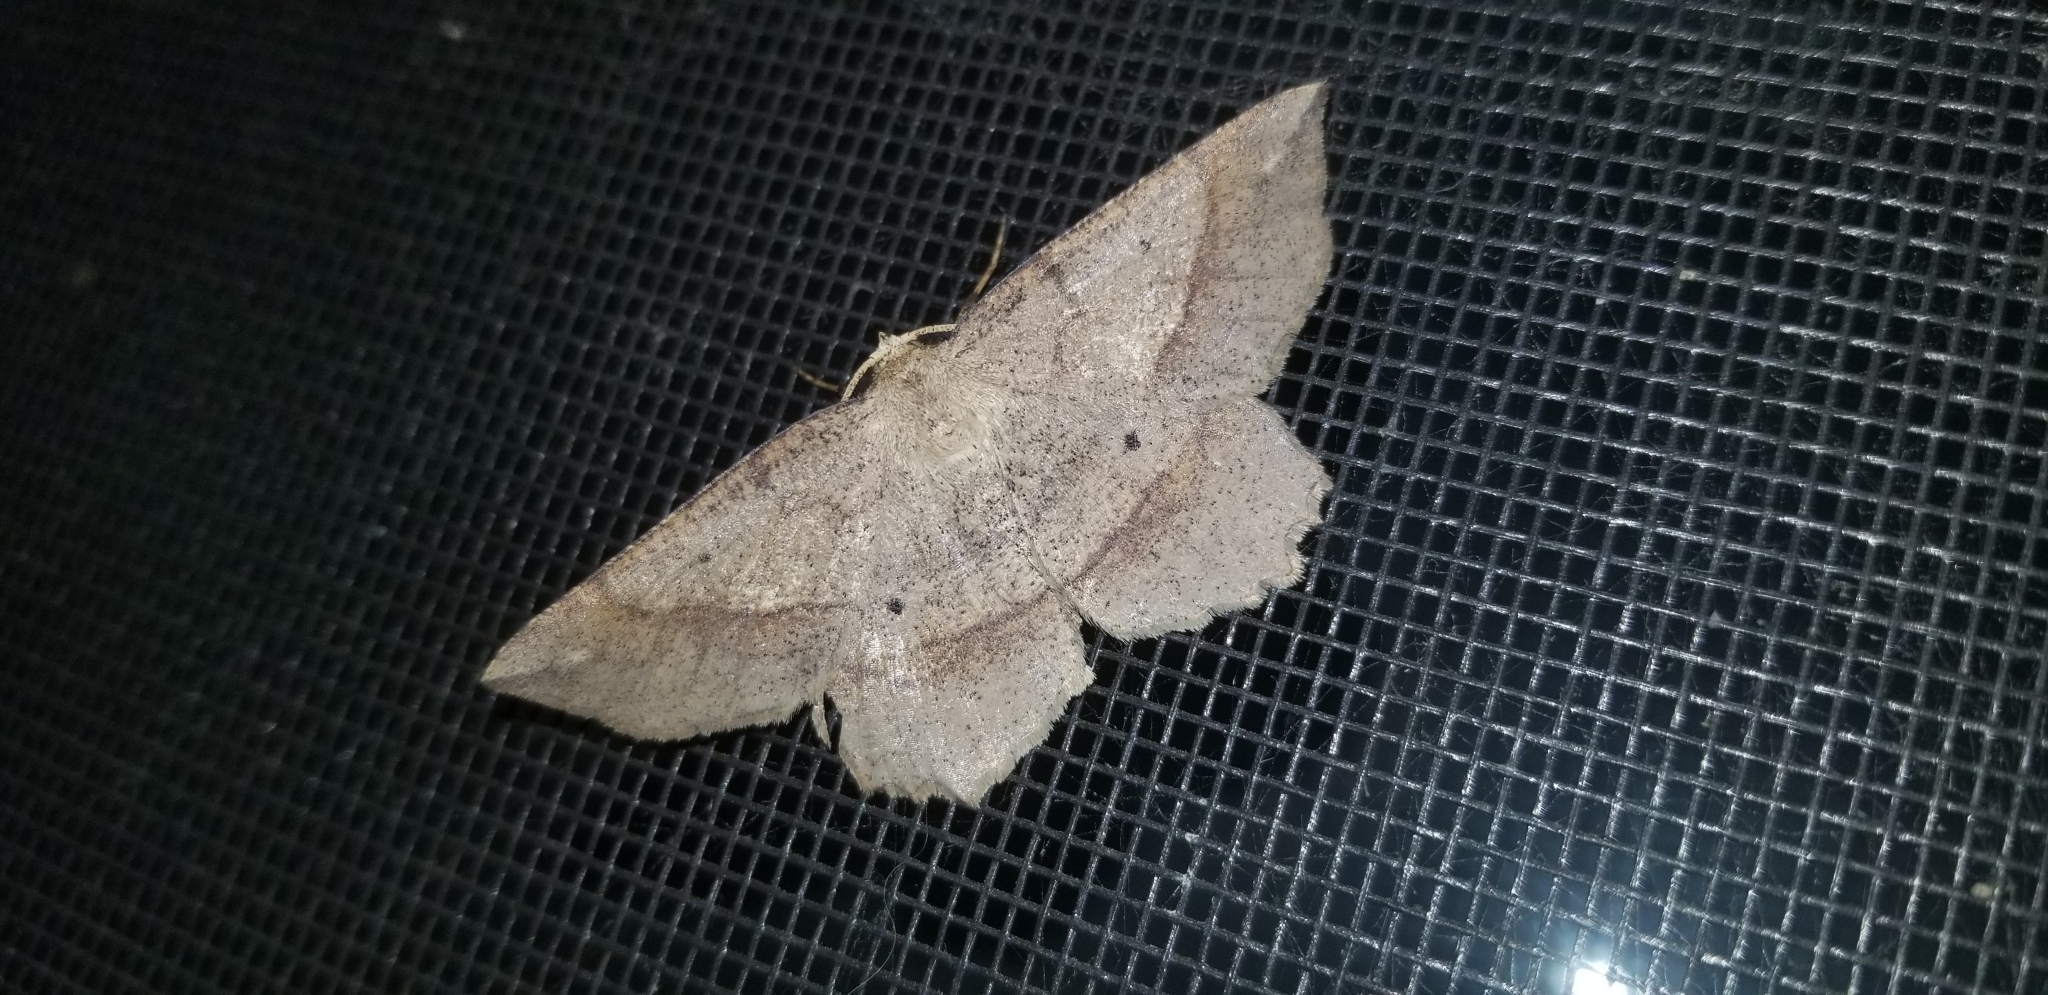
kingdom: Animalia
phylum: Arthropoda
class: Insecta
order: Lepidoptera
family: Geometridae
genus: Euchlaena
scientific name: Euchlaena marginaria
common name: Ochre euchlaena moth
